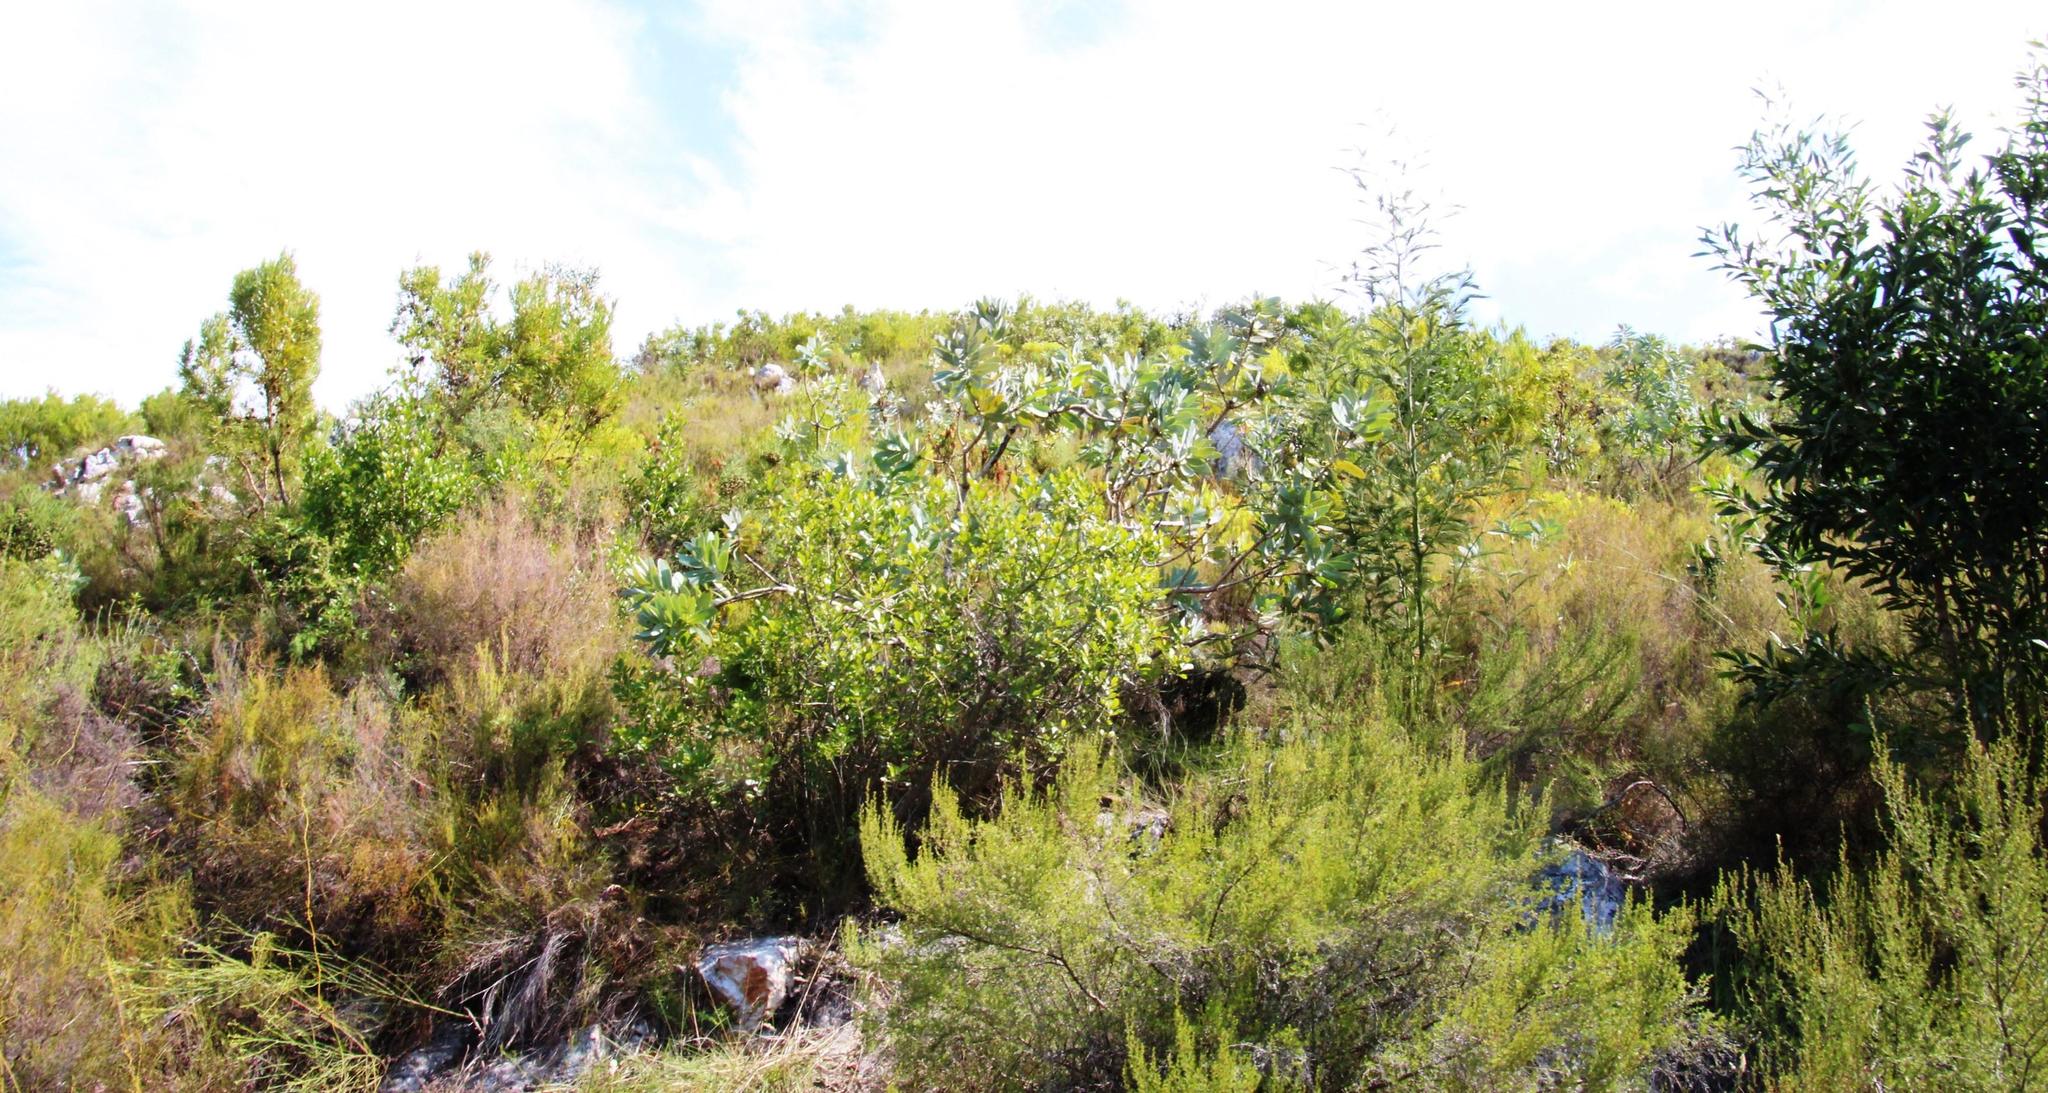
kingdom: Plantae
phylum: Tracheophyta
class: Magnoliopsida
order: Proteales
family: Proteaceae
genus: Protea
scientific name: Protea nitida
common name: Tree protea
